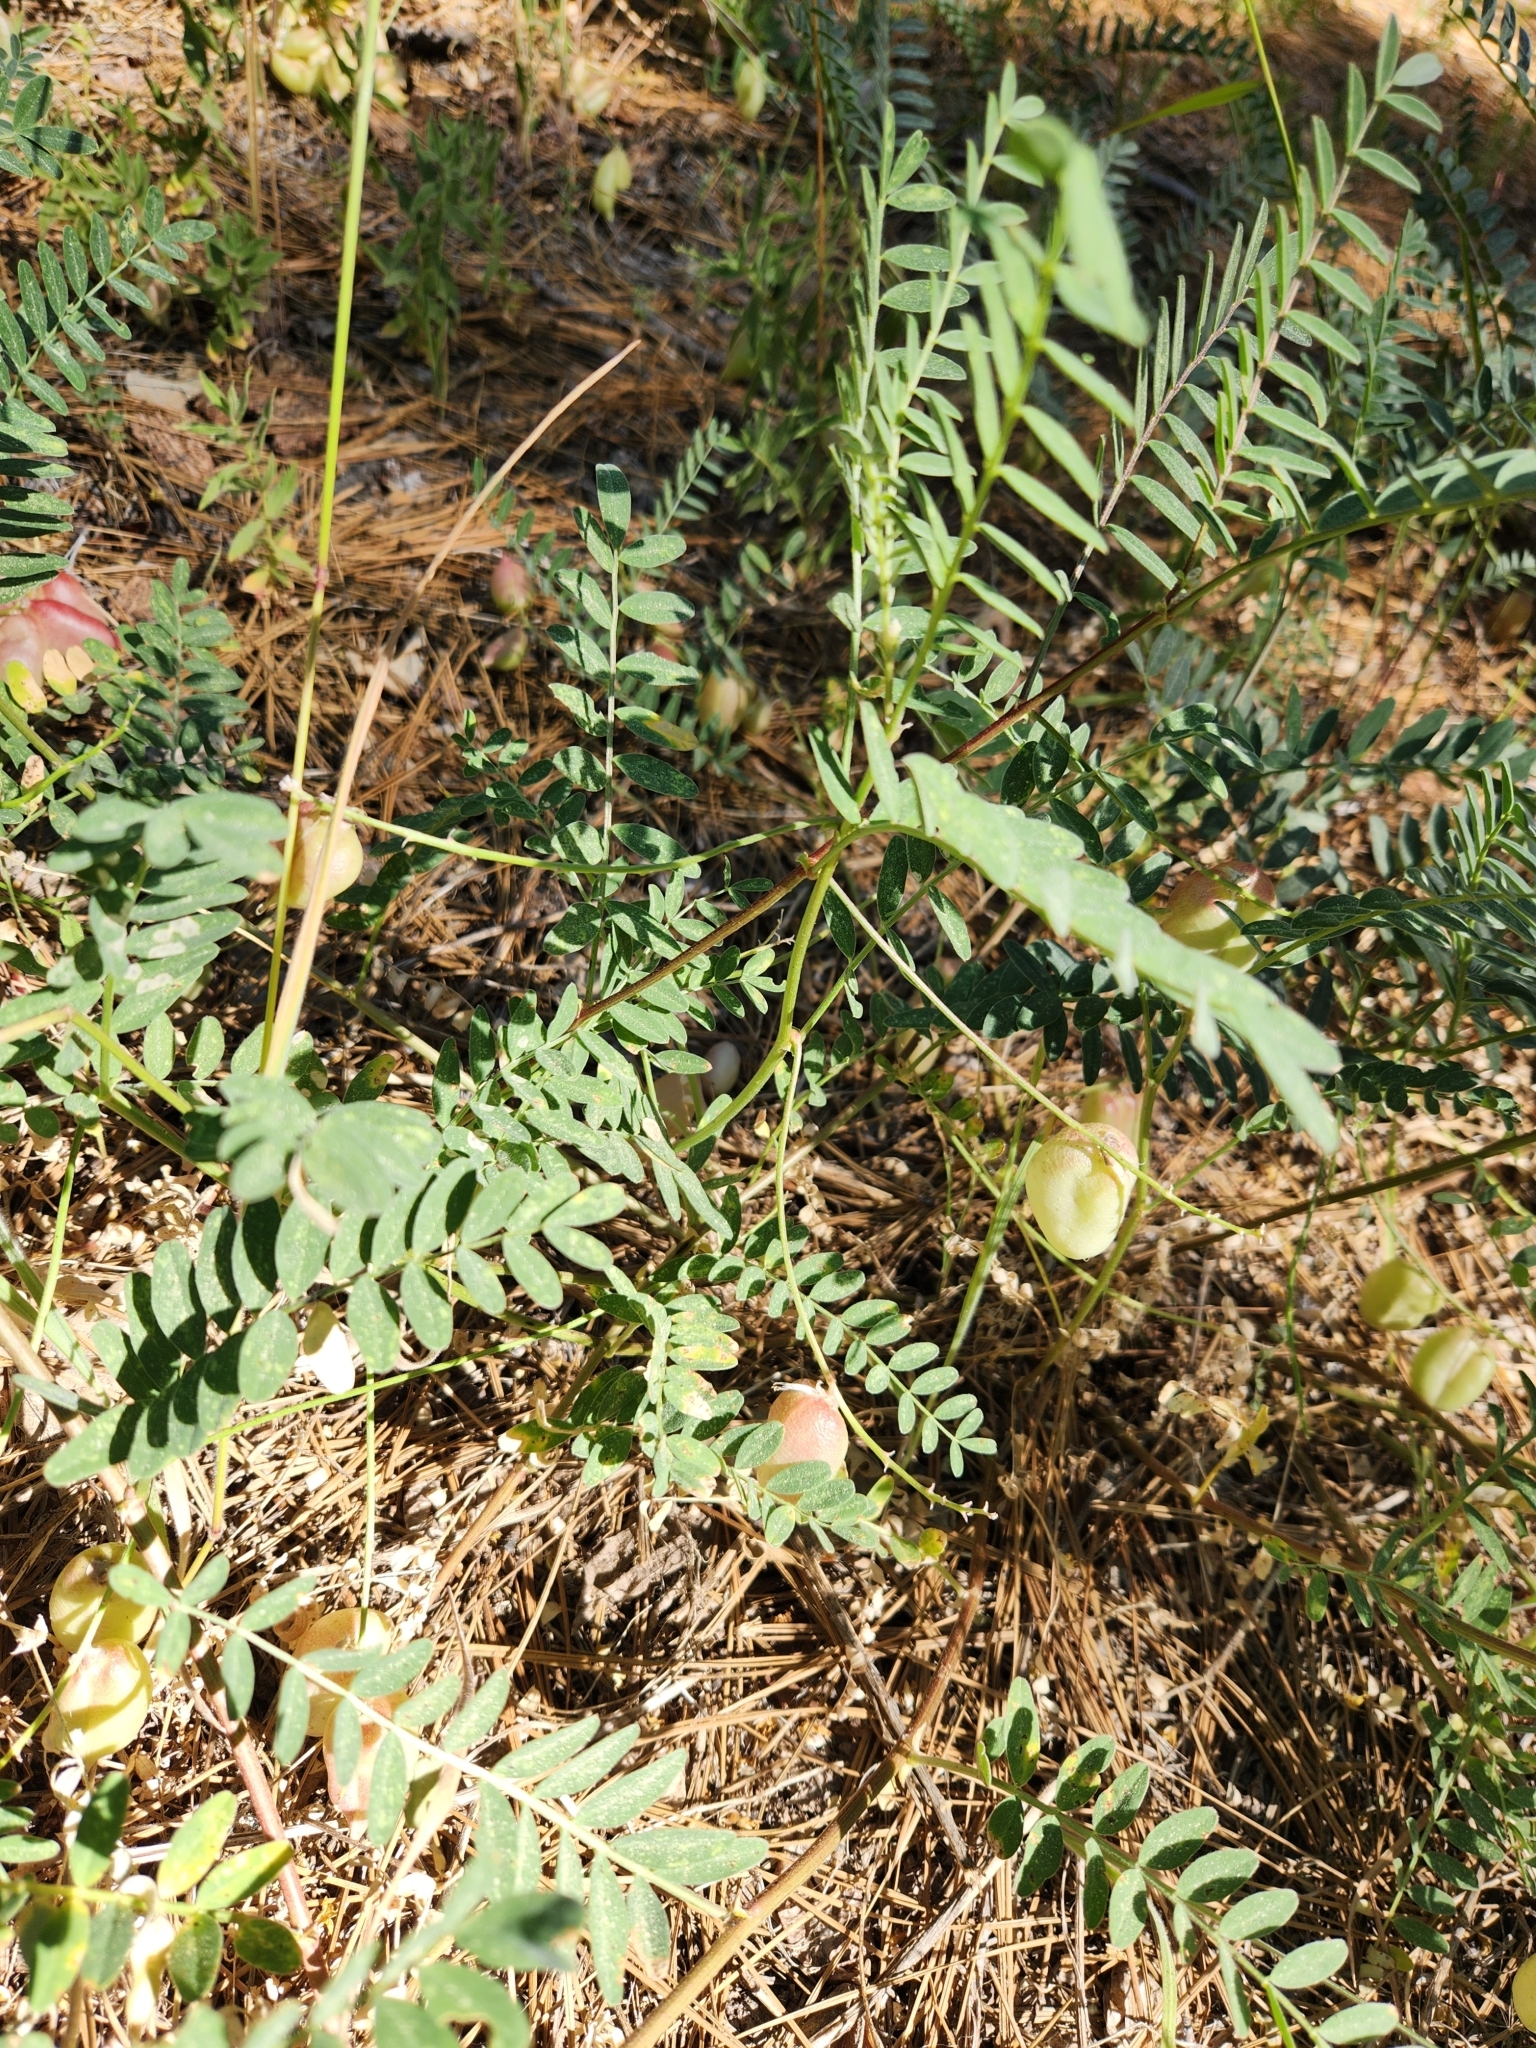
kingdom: Plantae
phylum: Tracheophyta
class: Magnoliopsida
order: Fabales
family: Fabaceae
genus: Astragalus
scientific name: Astragalus douglasii
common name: Jacumba milkvetch
